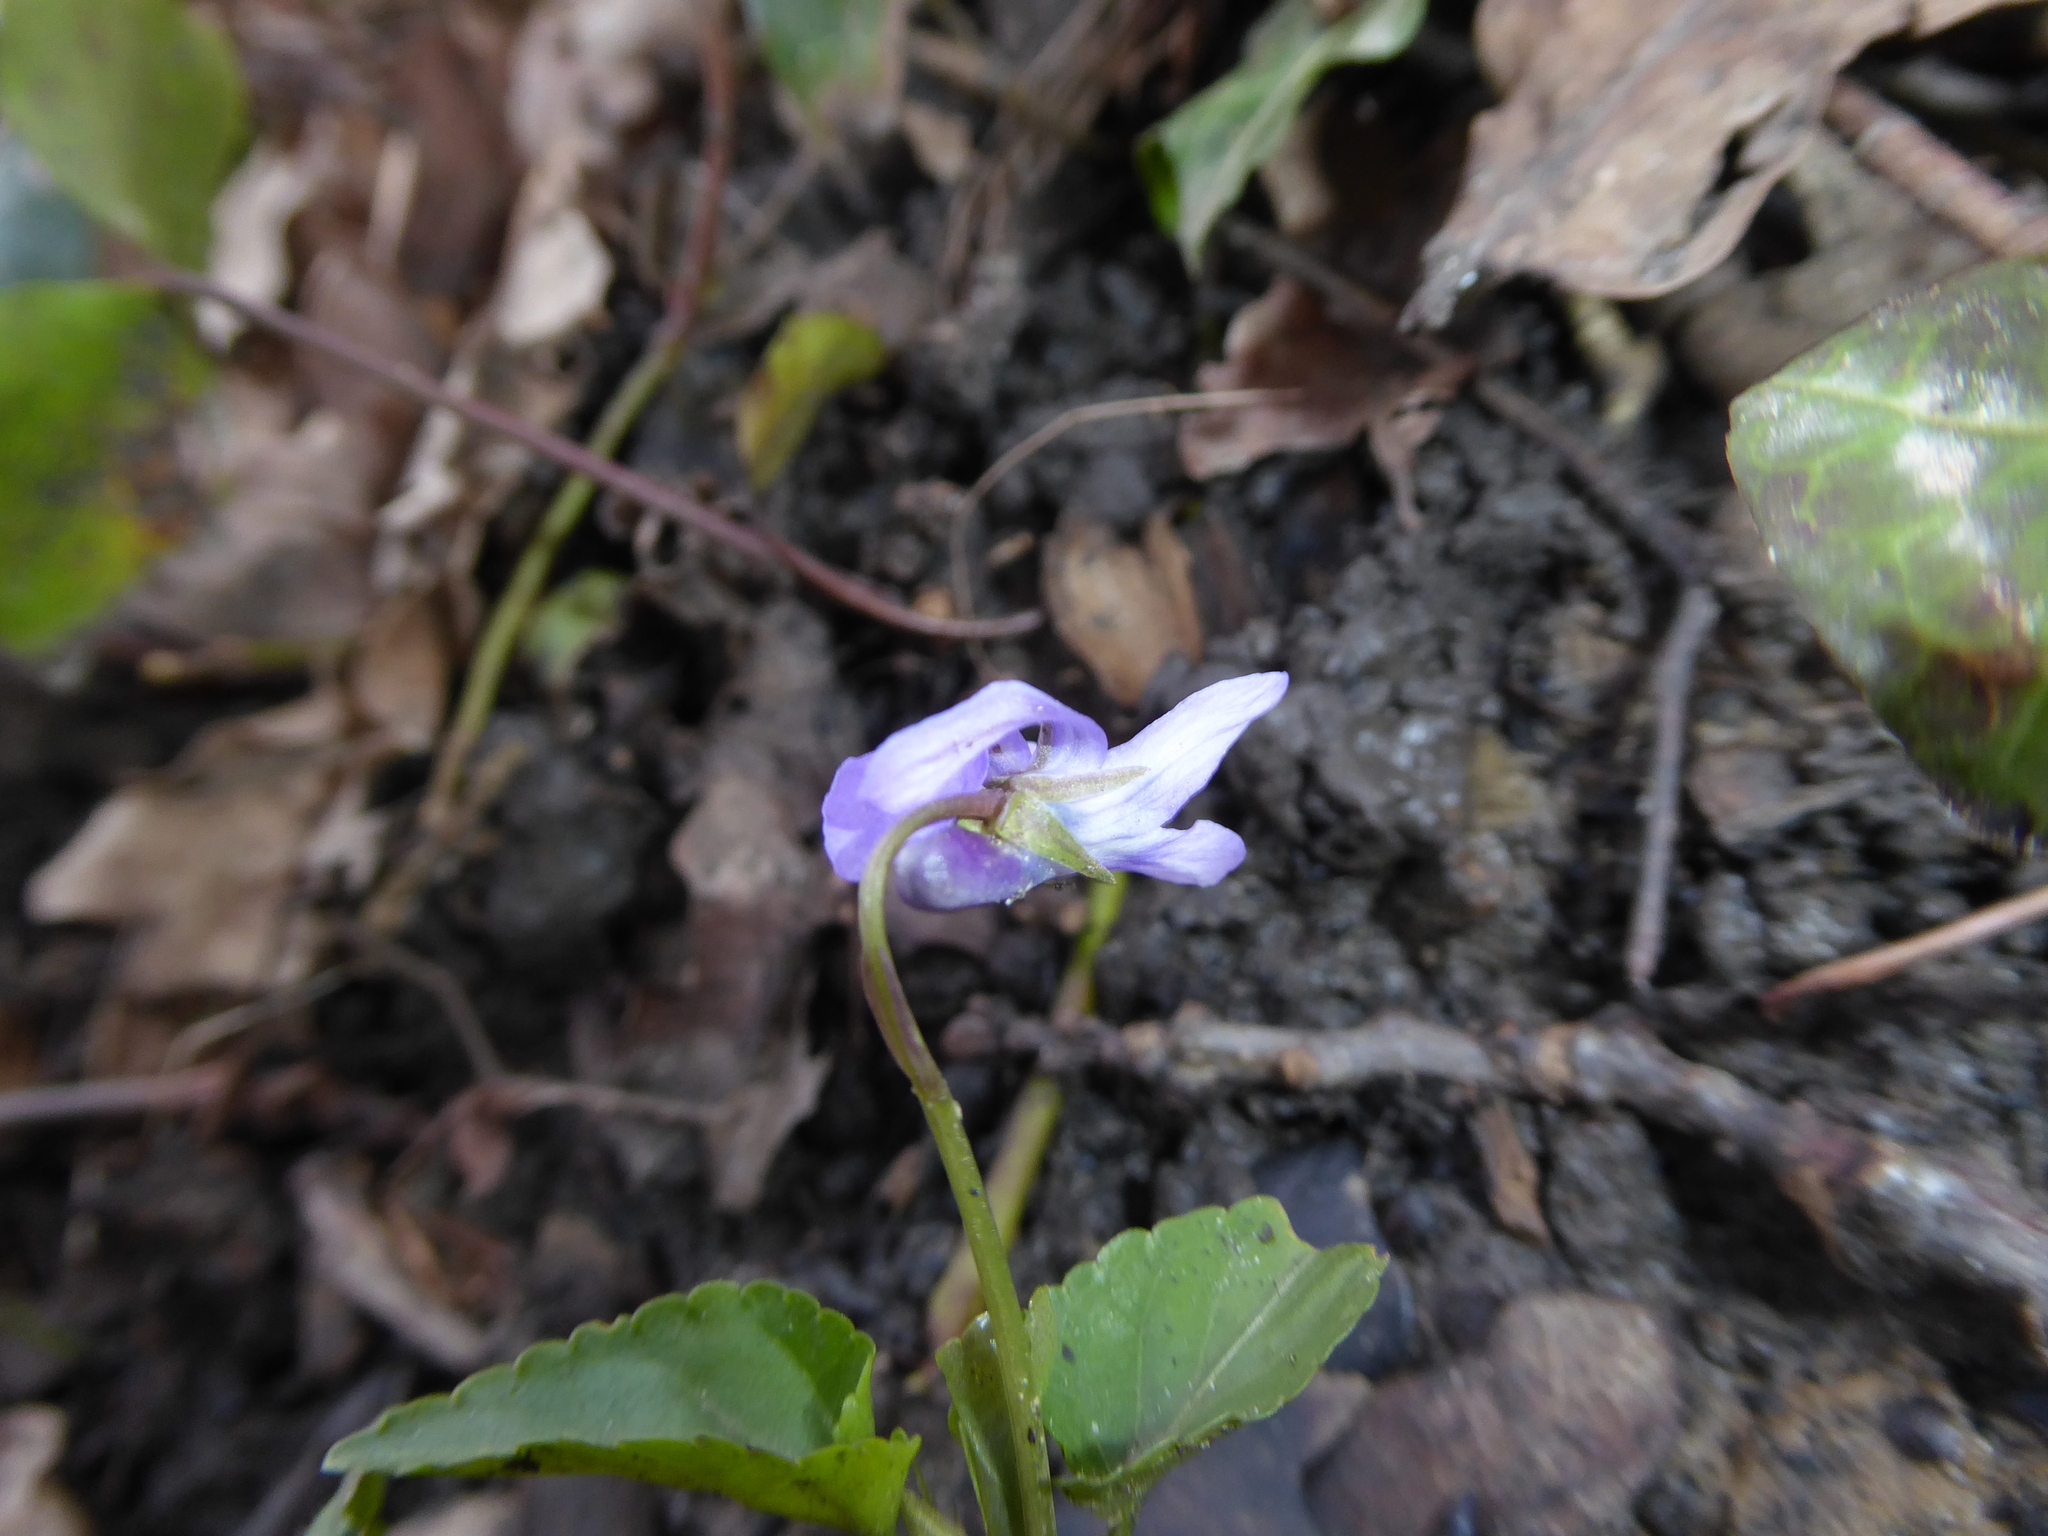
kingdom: Plantae
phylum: Tracheophyta
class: Magnoliopsida
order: Malpighiales
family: Violaceae
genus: Viola
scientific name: Viola reichenbachiana
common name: Early dog-violet
